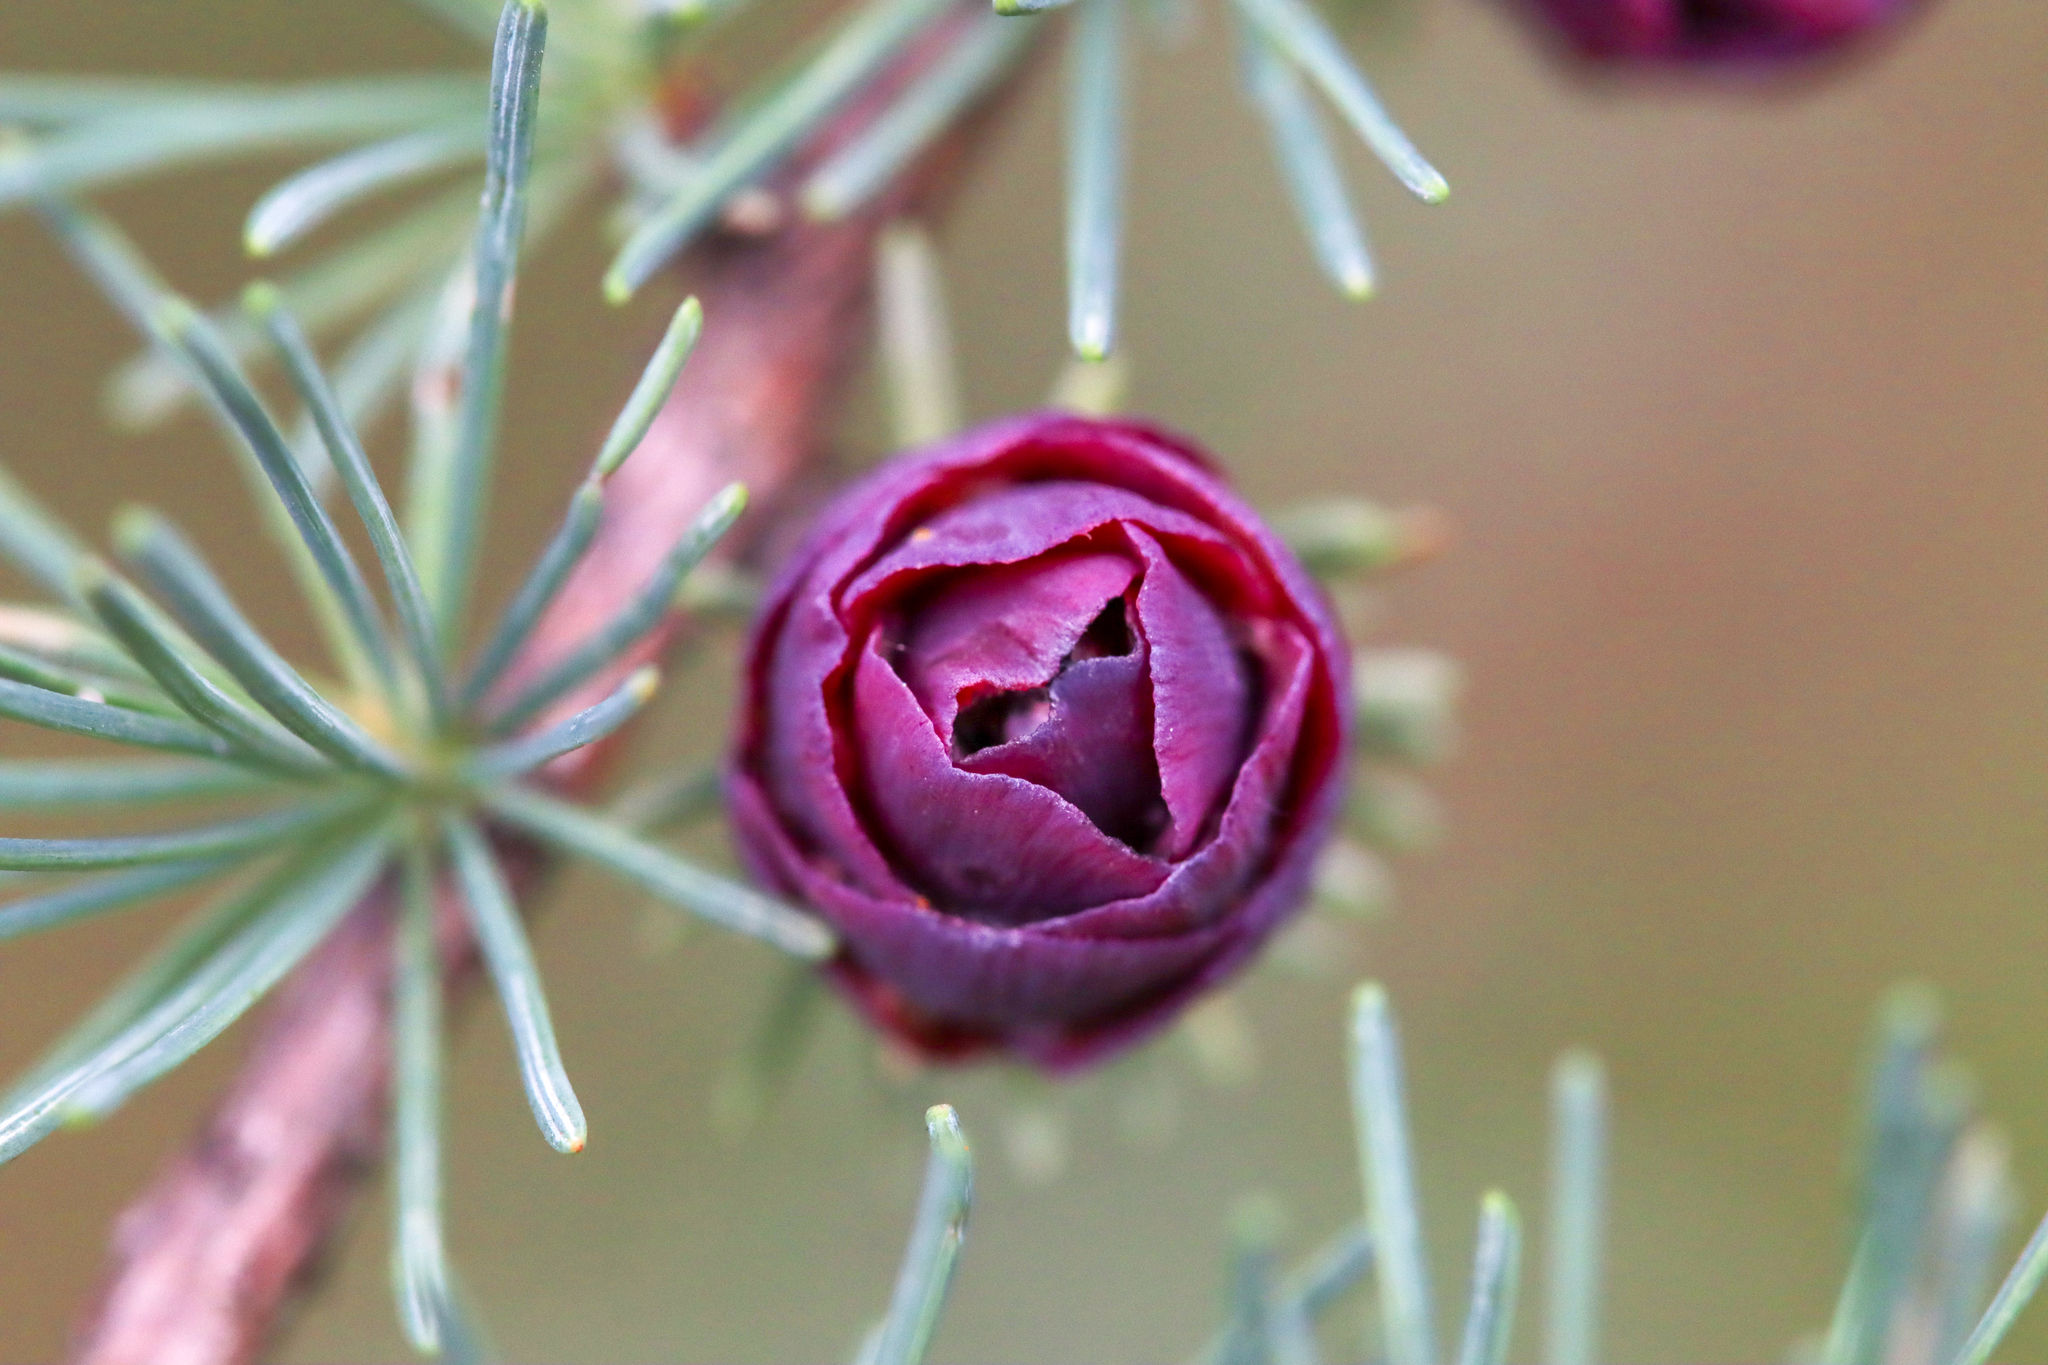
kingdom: Plantae
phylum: Tracheophyta
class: Pinopsida
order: Pinales
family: Pinaceae
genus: Larix
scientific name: Larix laricina
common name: American larch
